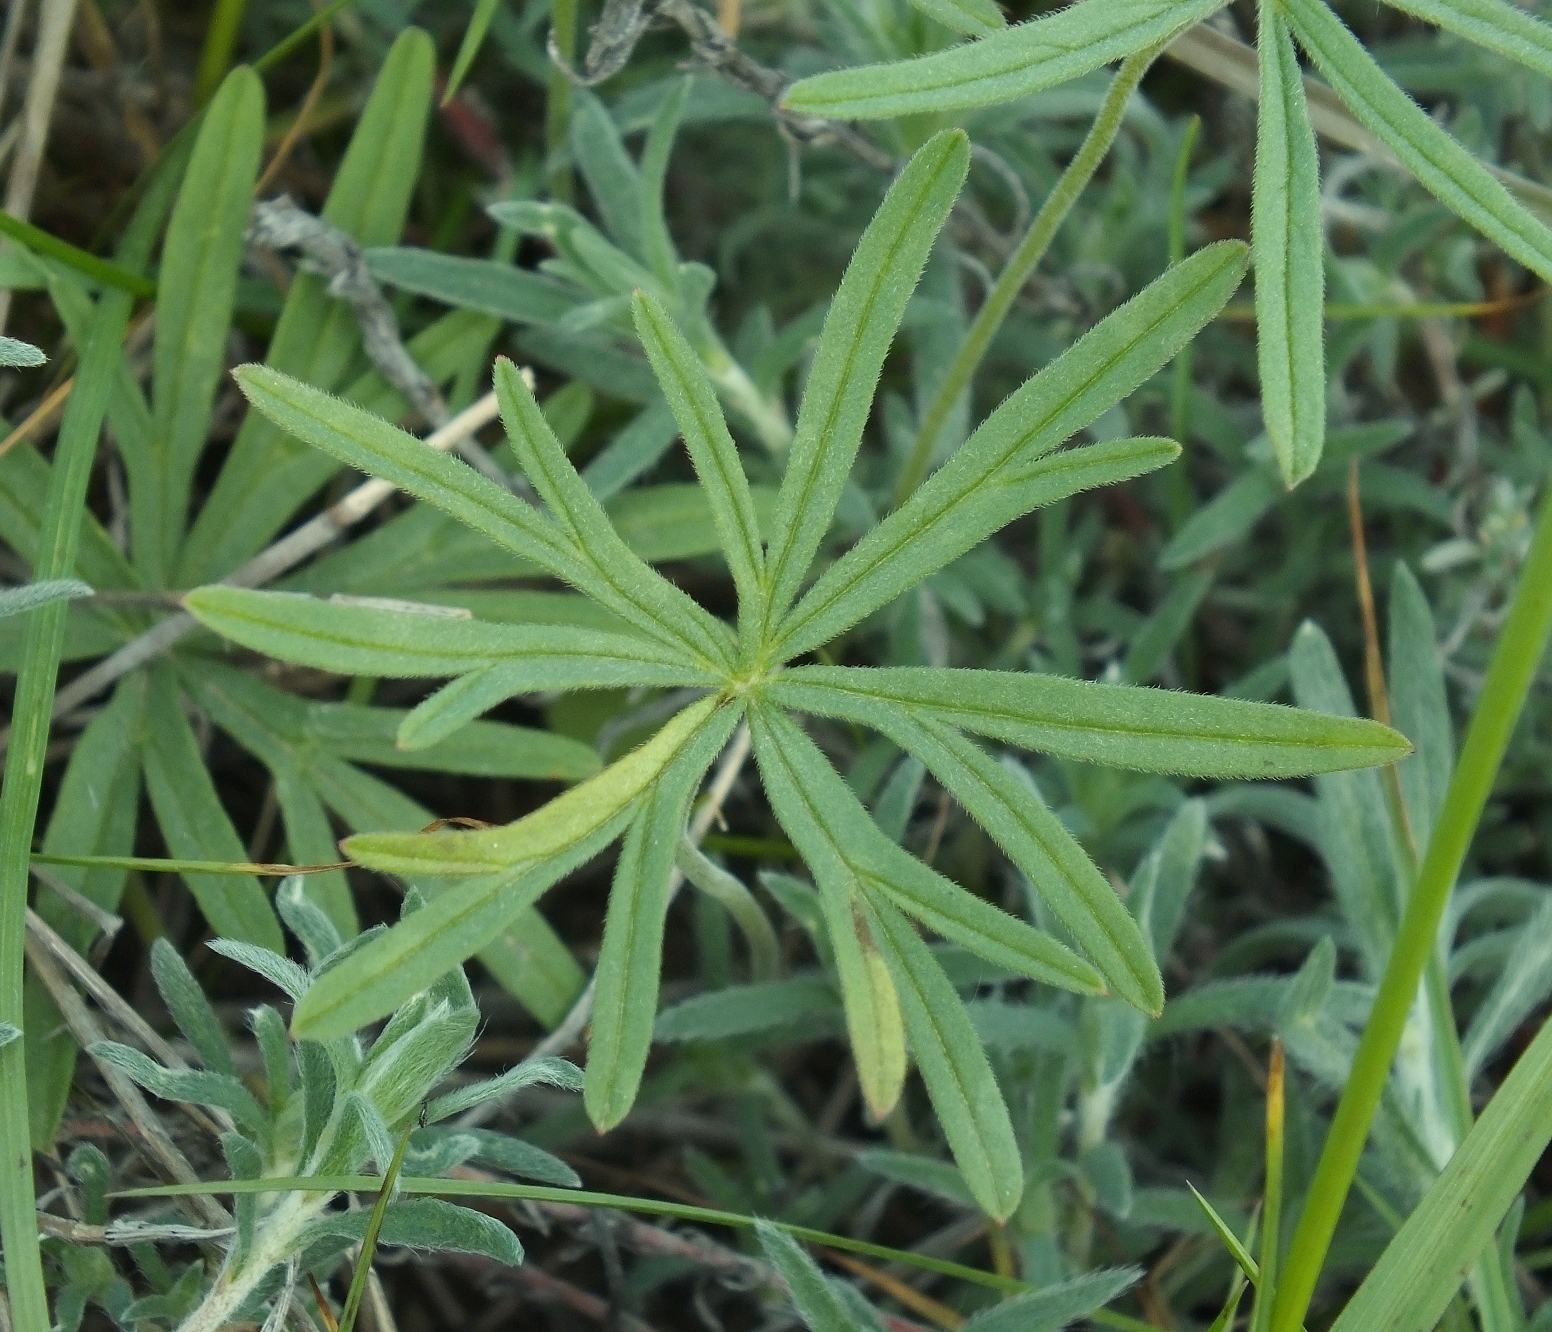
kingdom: Plantae
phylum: Tracheophyta
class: Magnoliopsida
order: Geraniales
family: Geraniaceae
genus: Geranium
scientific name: Geranium linearilobum
